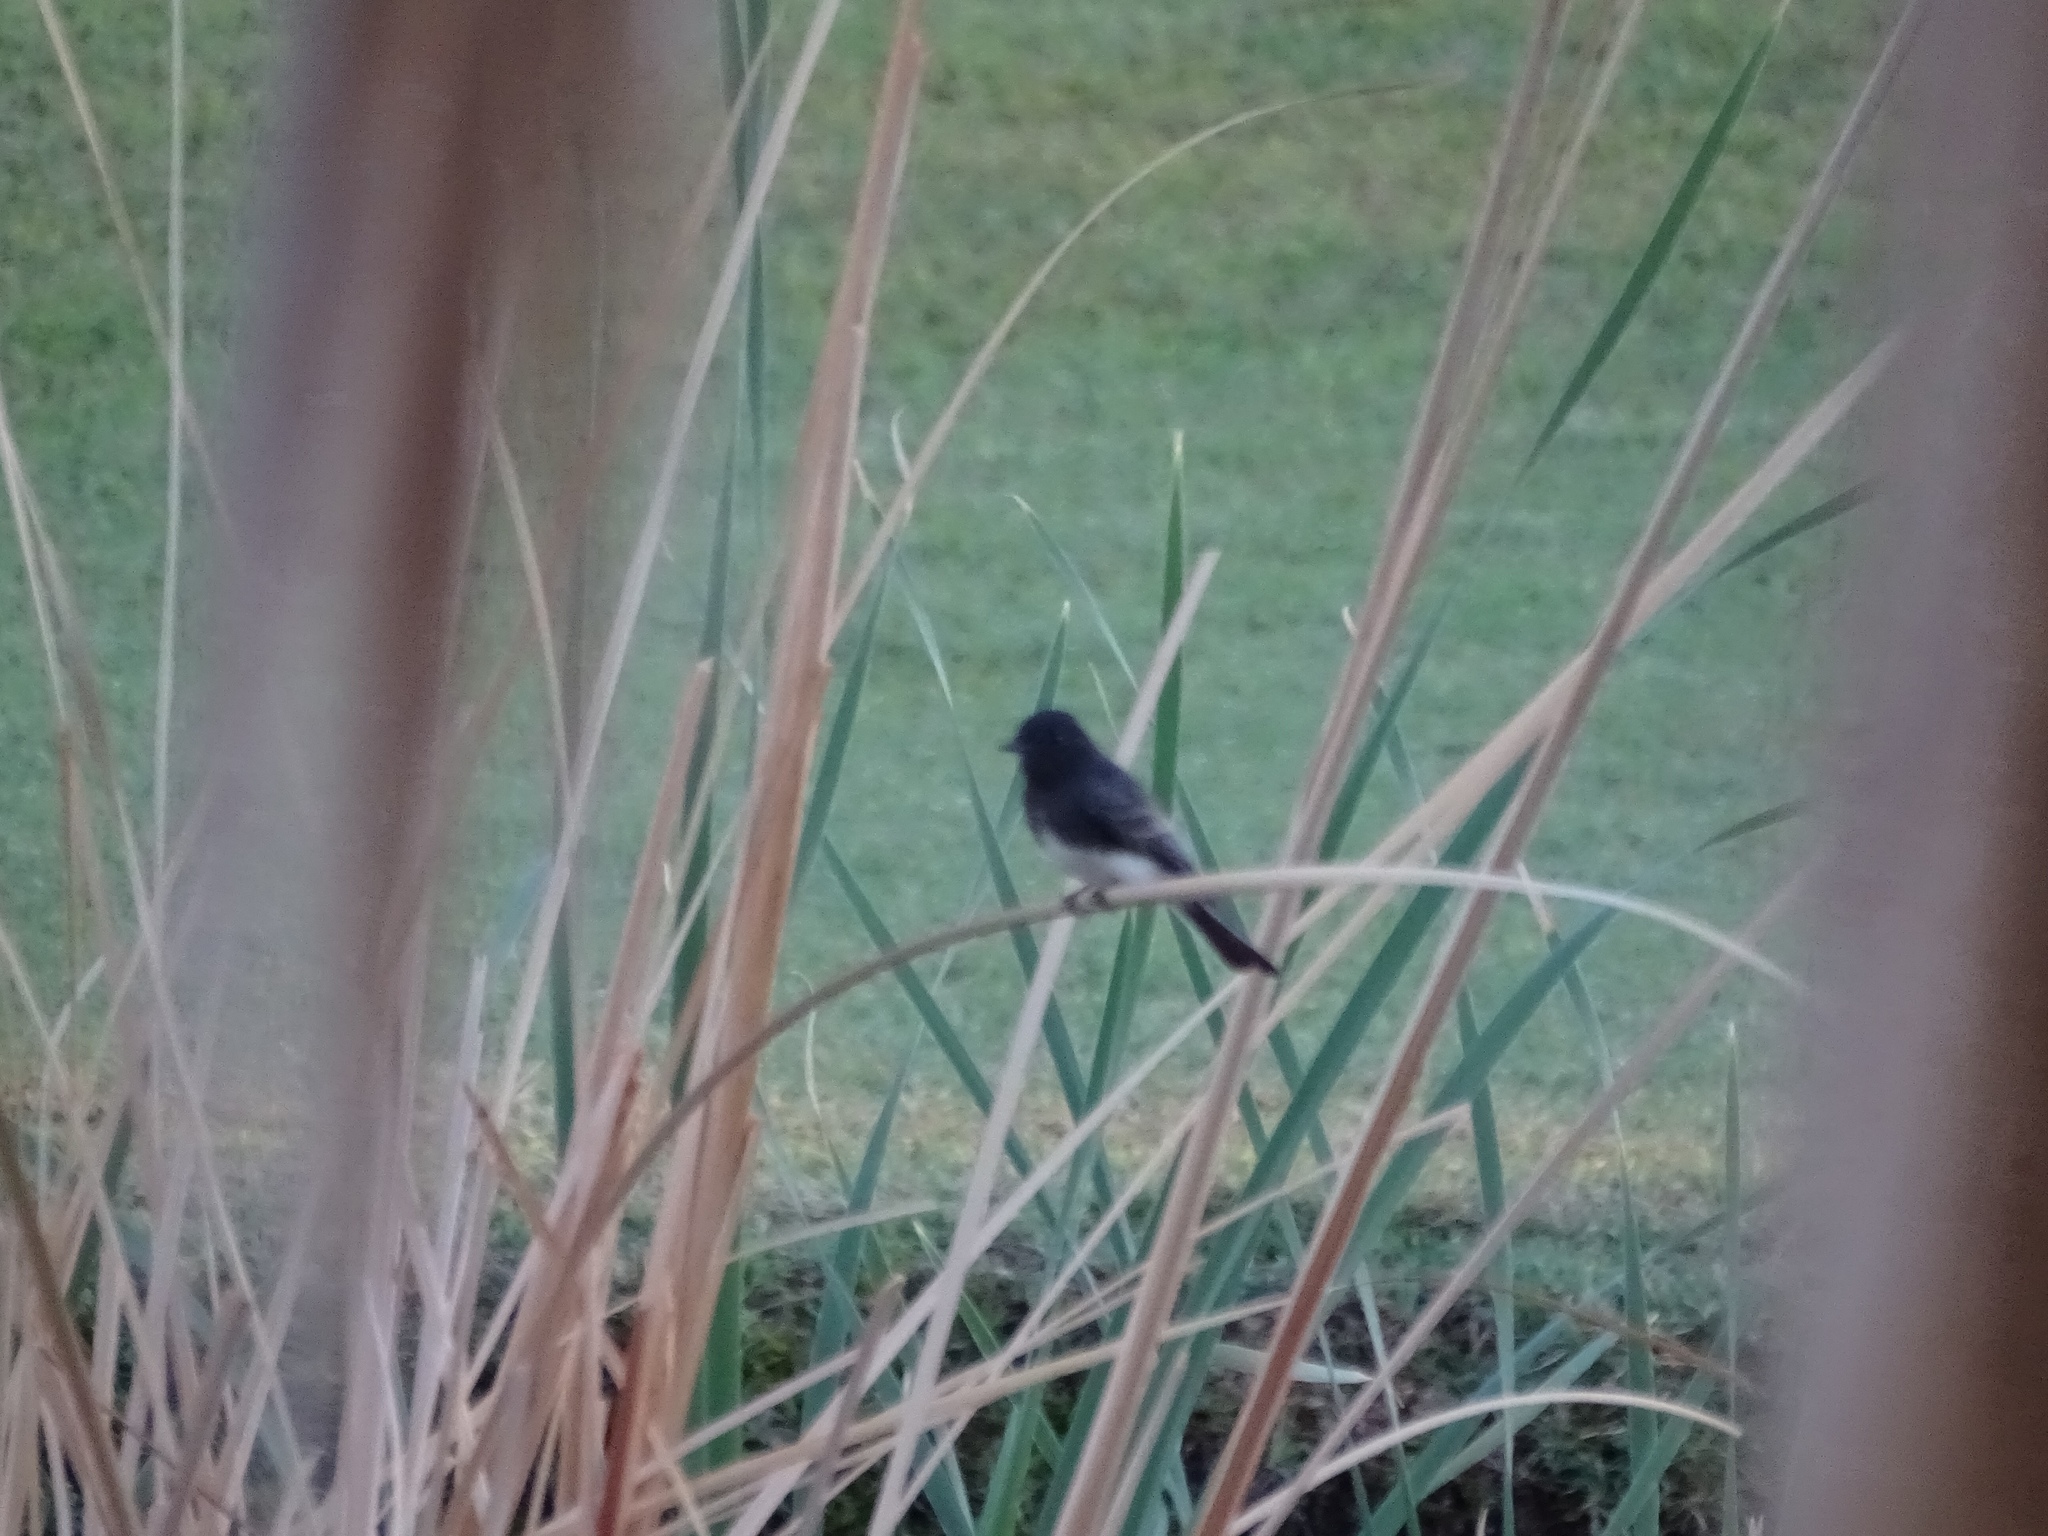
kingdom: Animalia
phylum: Chordata
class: Aves
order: Passeriformes
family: Tyrannidae
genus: Sayornis
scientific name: Sayornis nigricans
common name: Black phoebe
